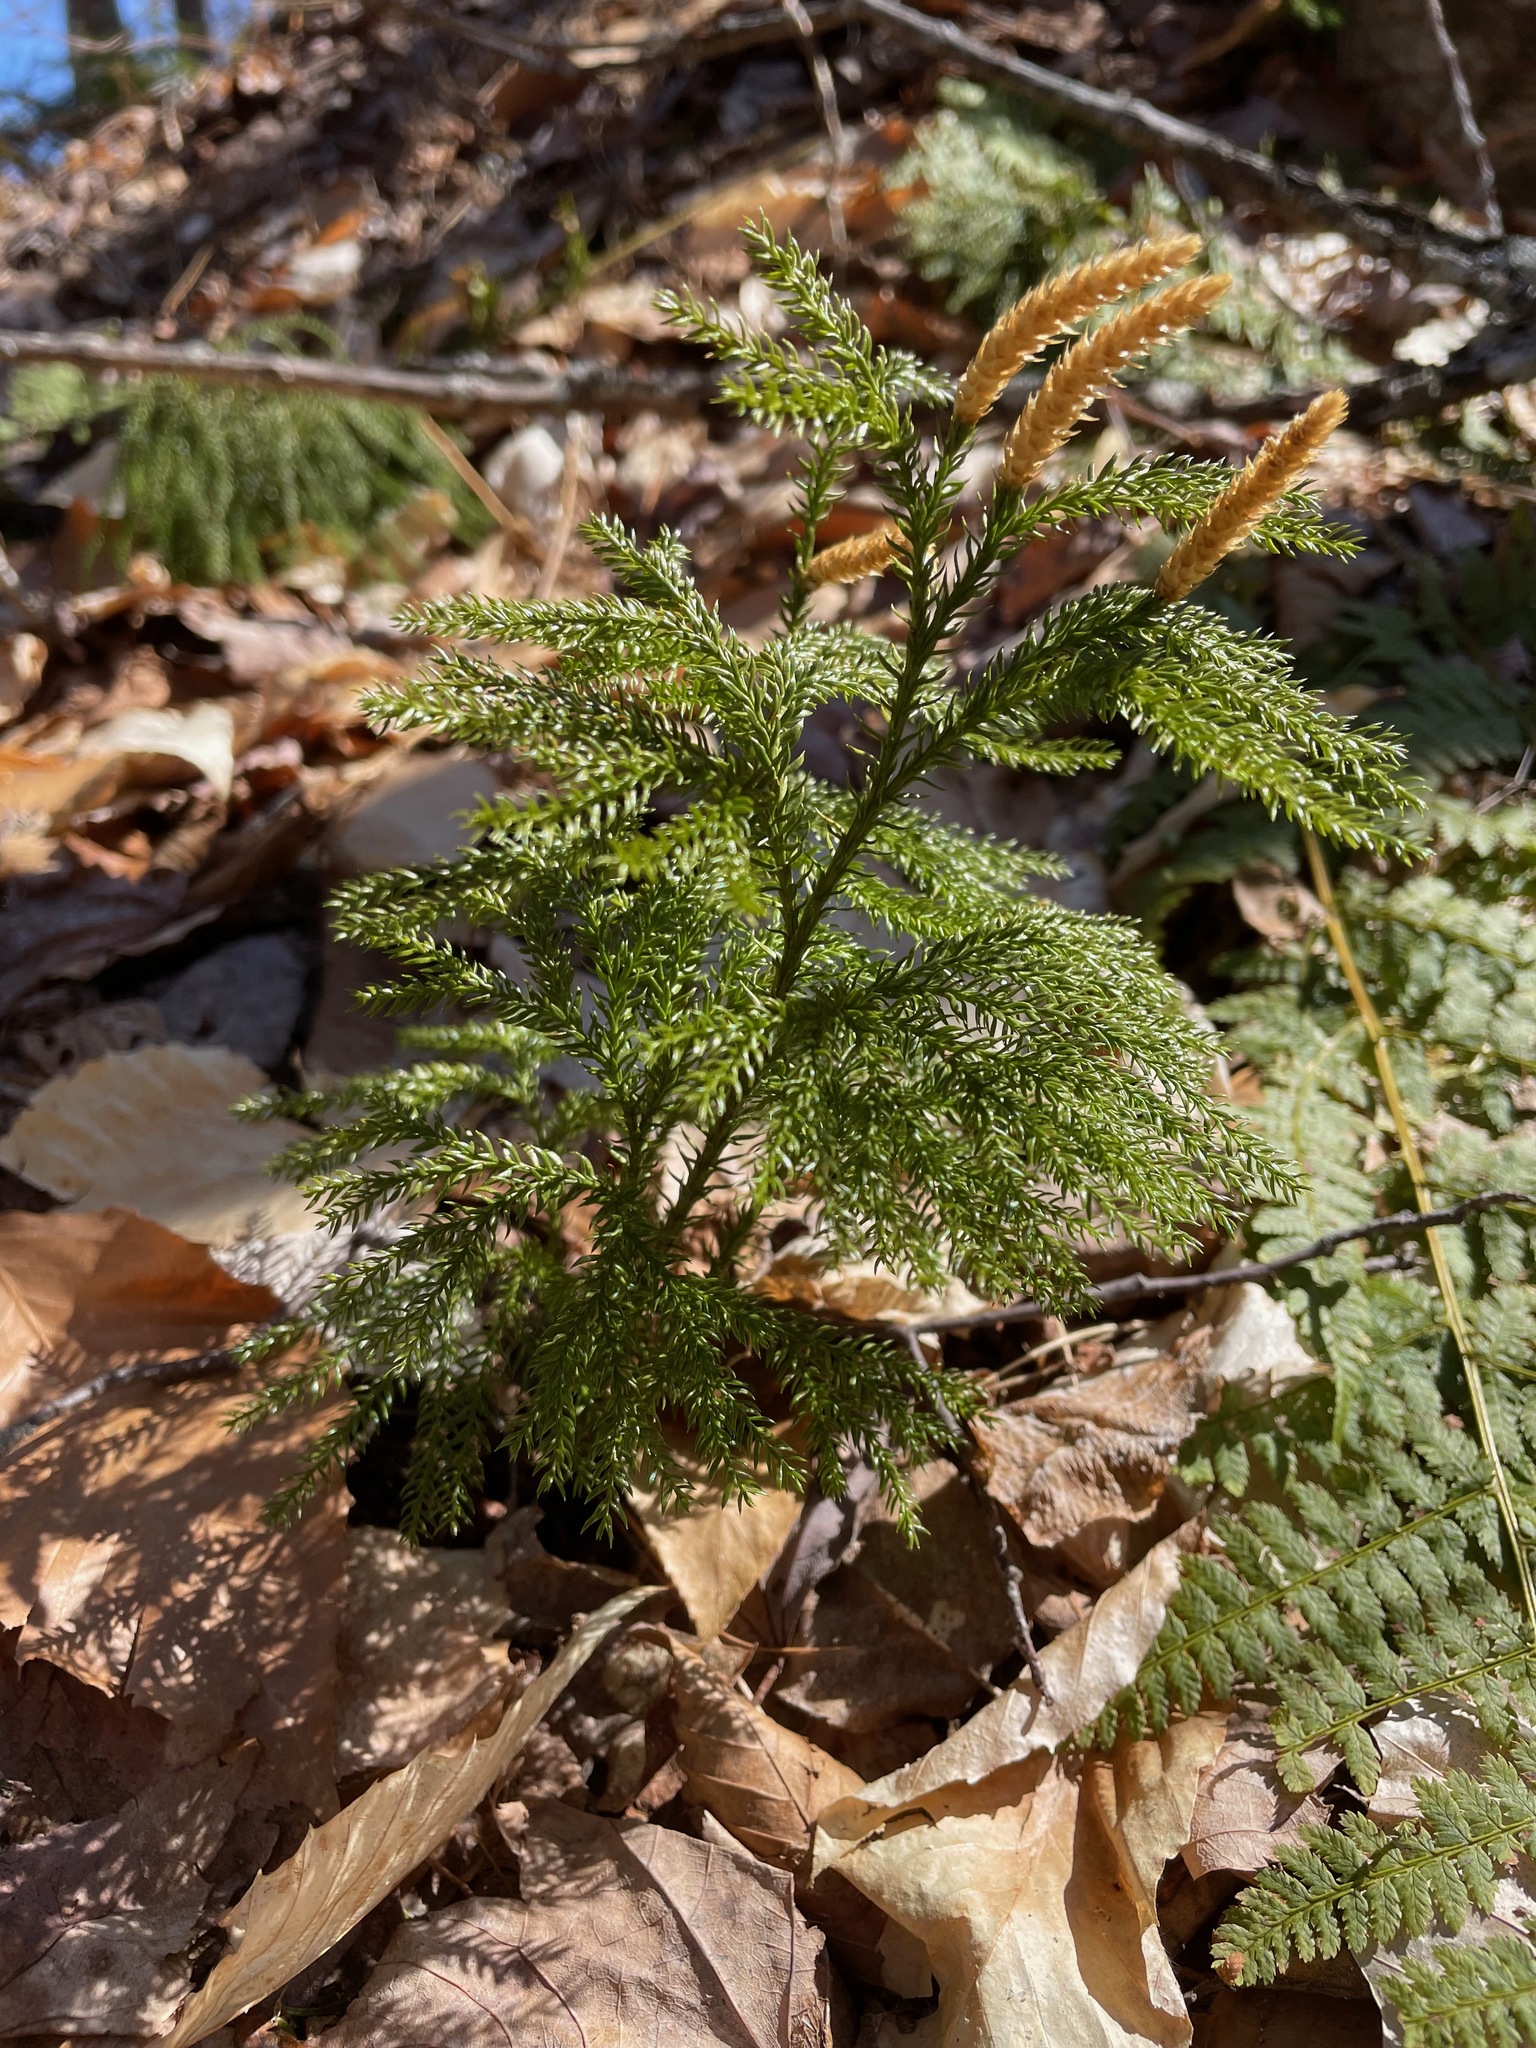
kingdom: Plantae
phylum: Tracheophyta
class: Lycopodiopsida
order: Lycopodiales
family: Lycopodiaceae
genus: Dendrolycopodium
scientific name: Dendrolycopodium dendroideum
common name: Northern tree-clubmoss
